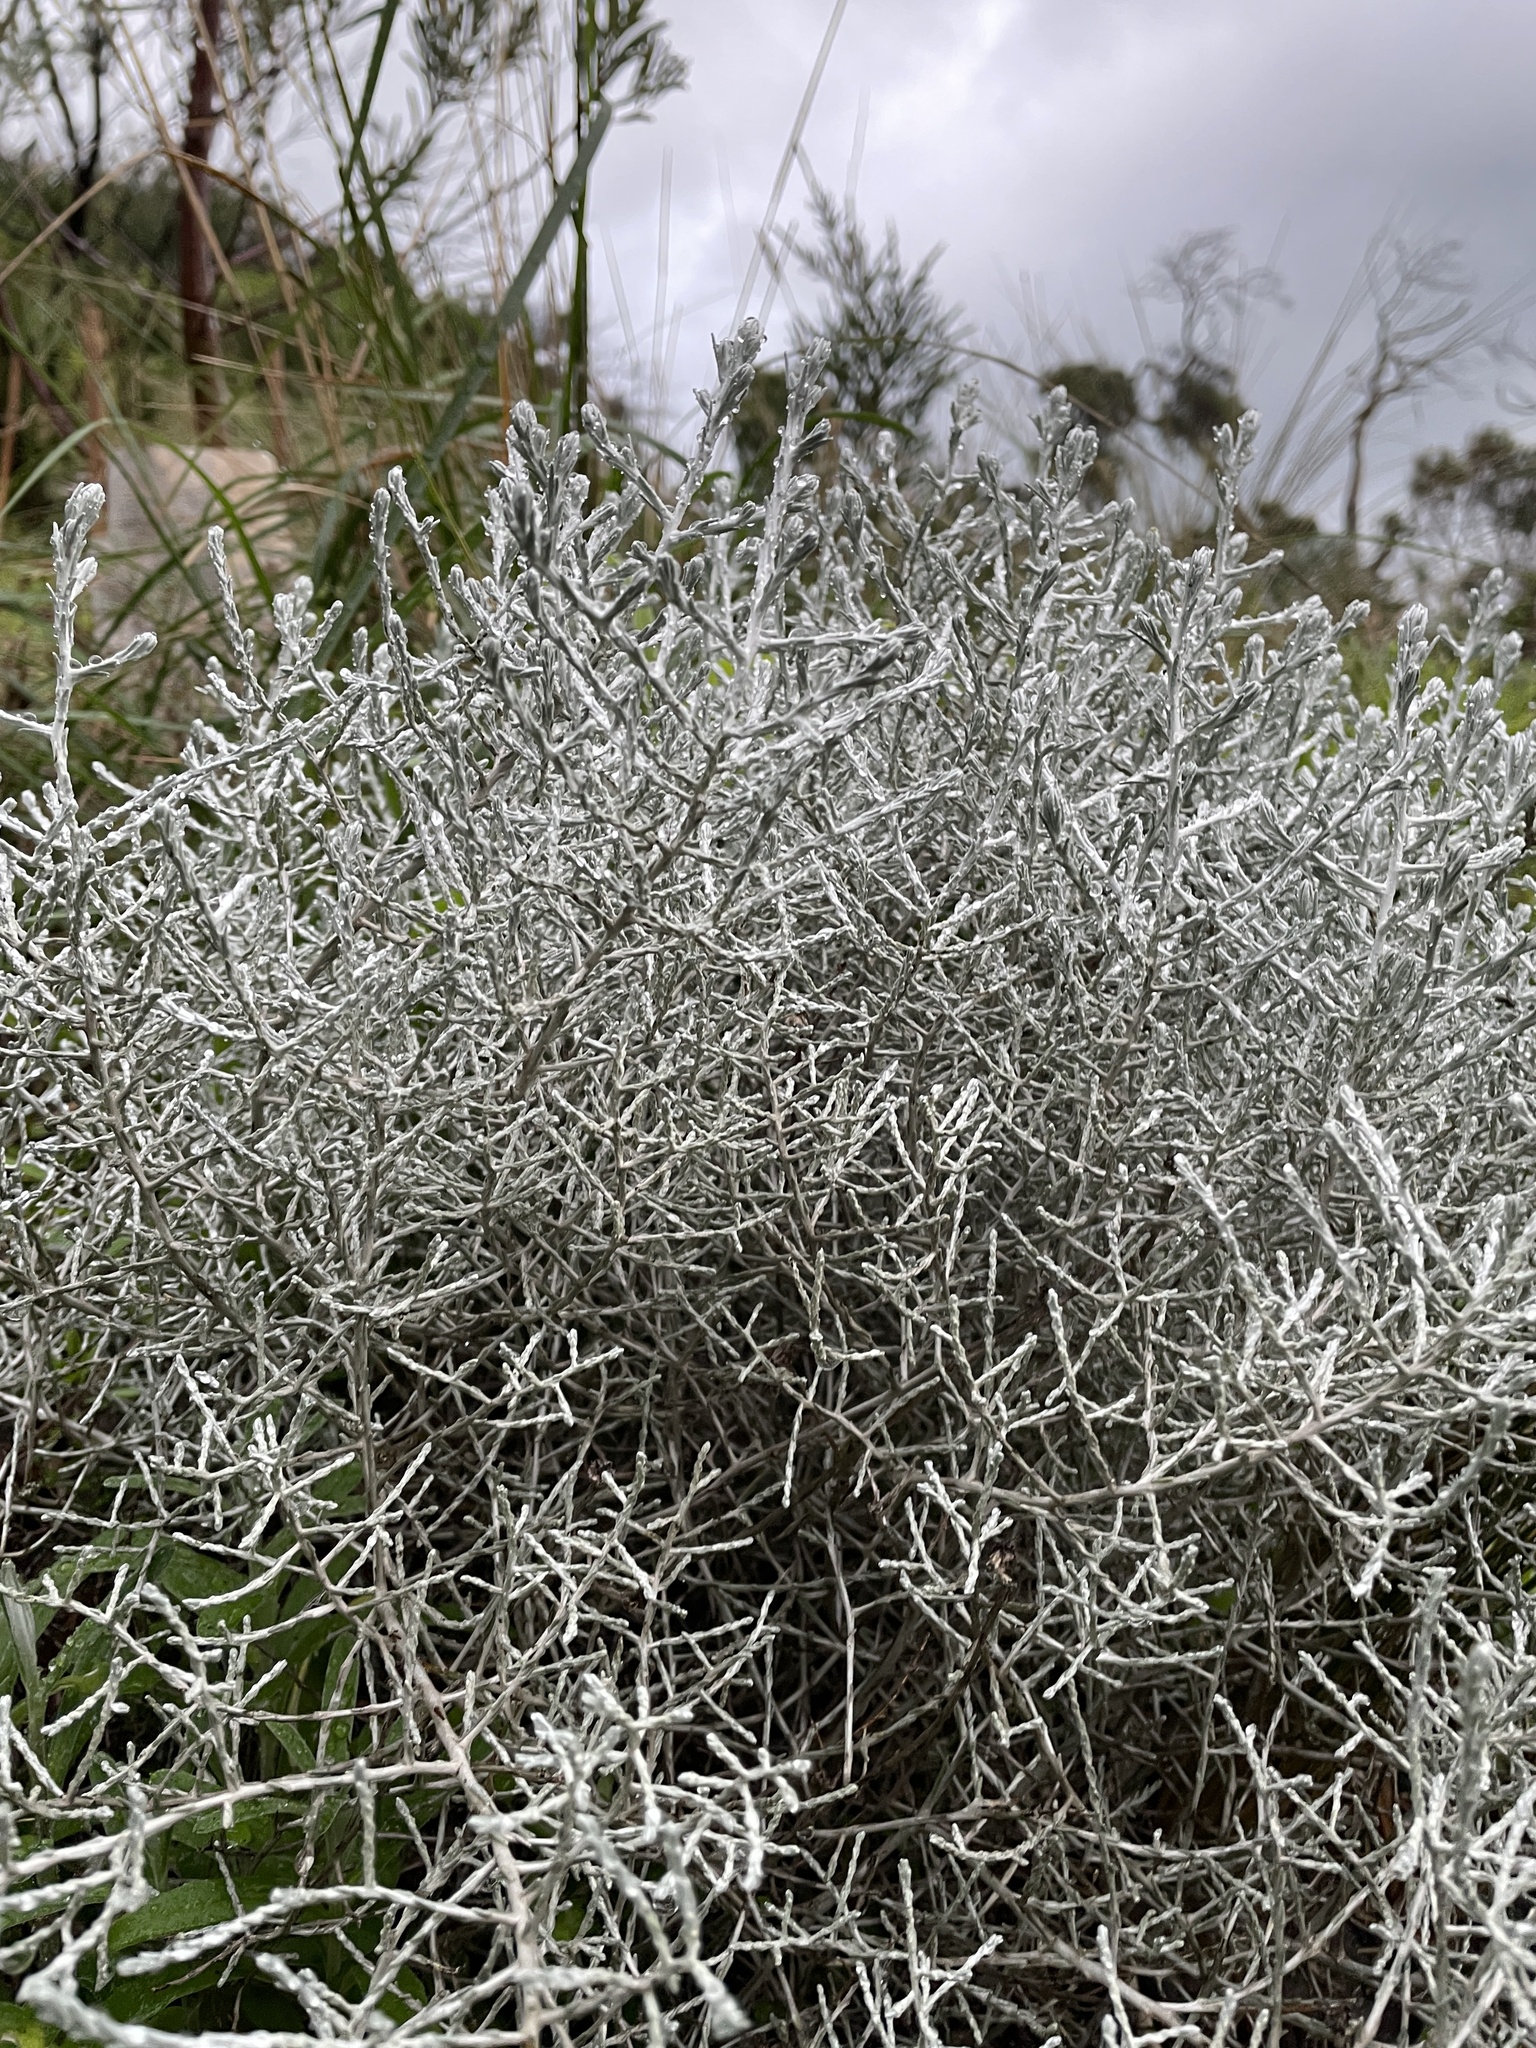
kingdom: Plantae
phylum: Tracheophyta
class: Magnoliopsida
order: Asterales
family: Asteraceae
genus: Calocephalus
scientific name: Calocephalus brownii
